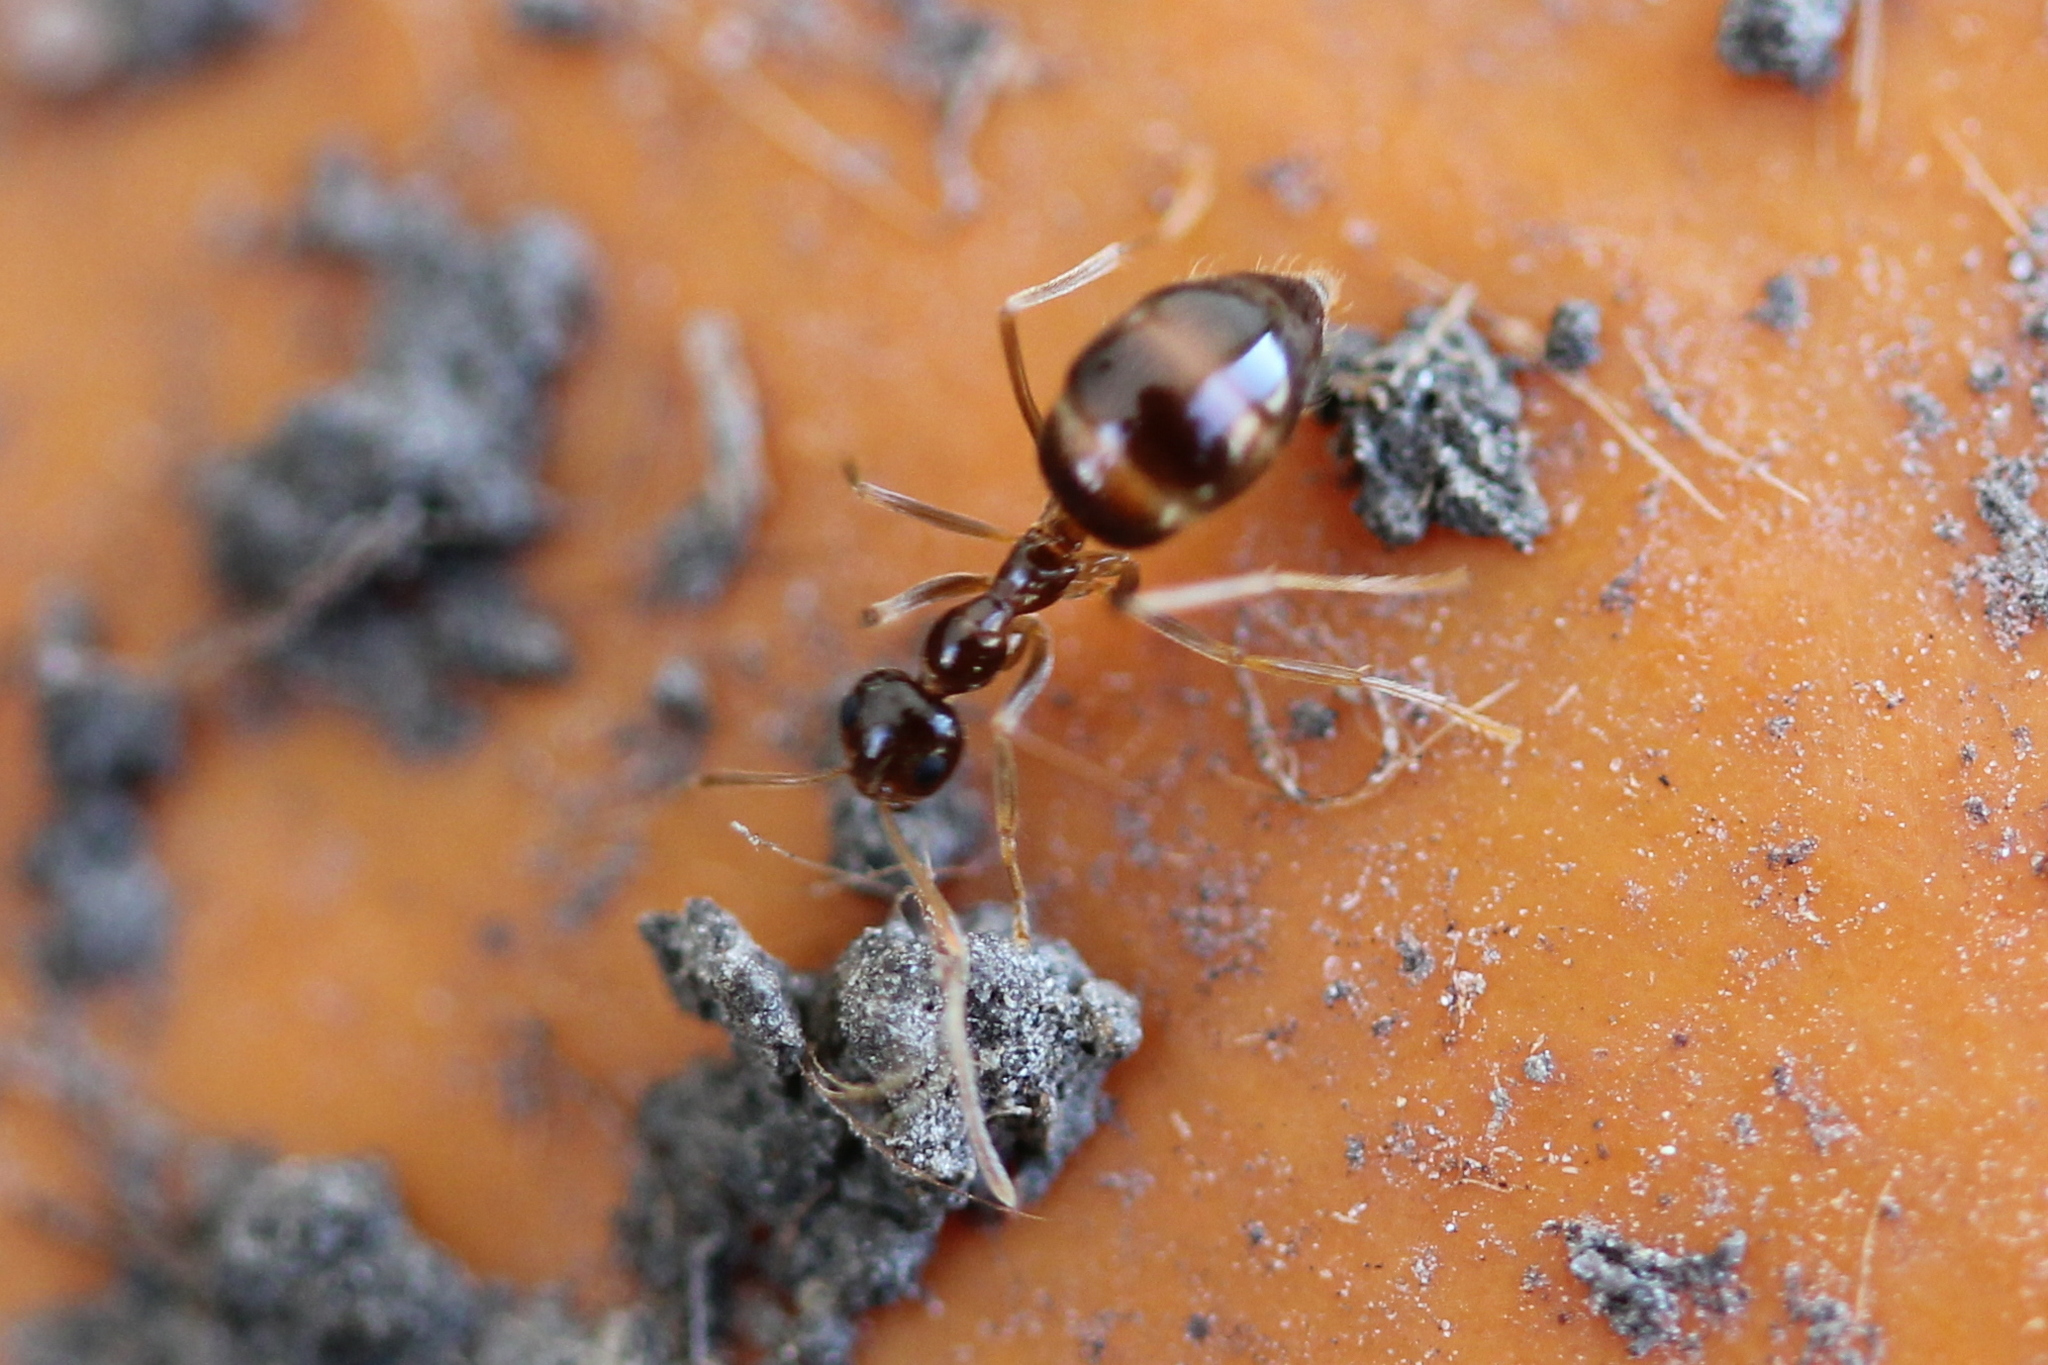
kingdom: Animalia
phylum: Arthropoda
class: Insecta
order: Hymenoptera
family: Formicidae
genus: Prenolepis
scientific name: Prenolepis imparis
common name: Small honey ant
